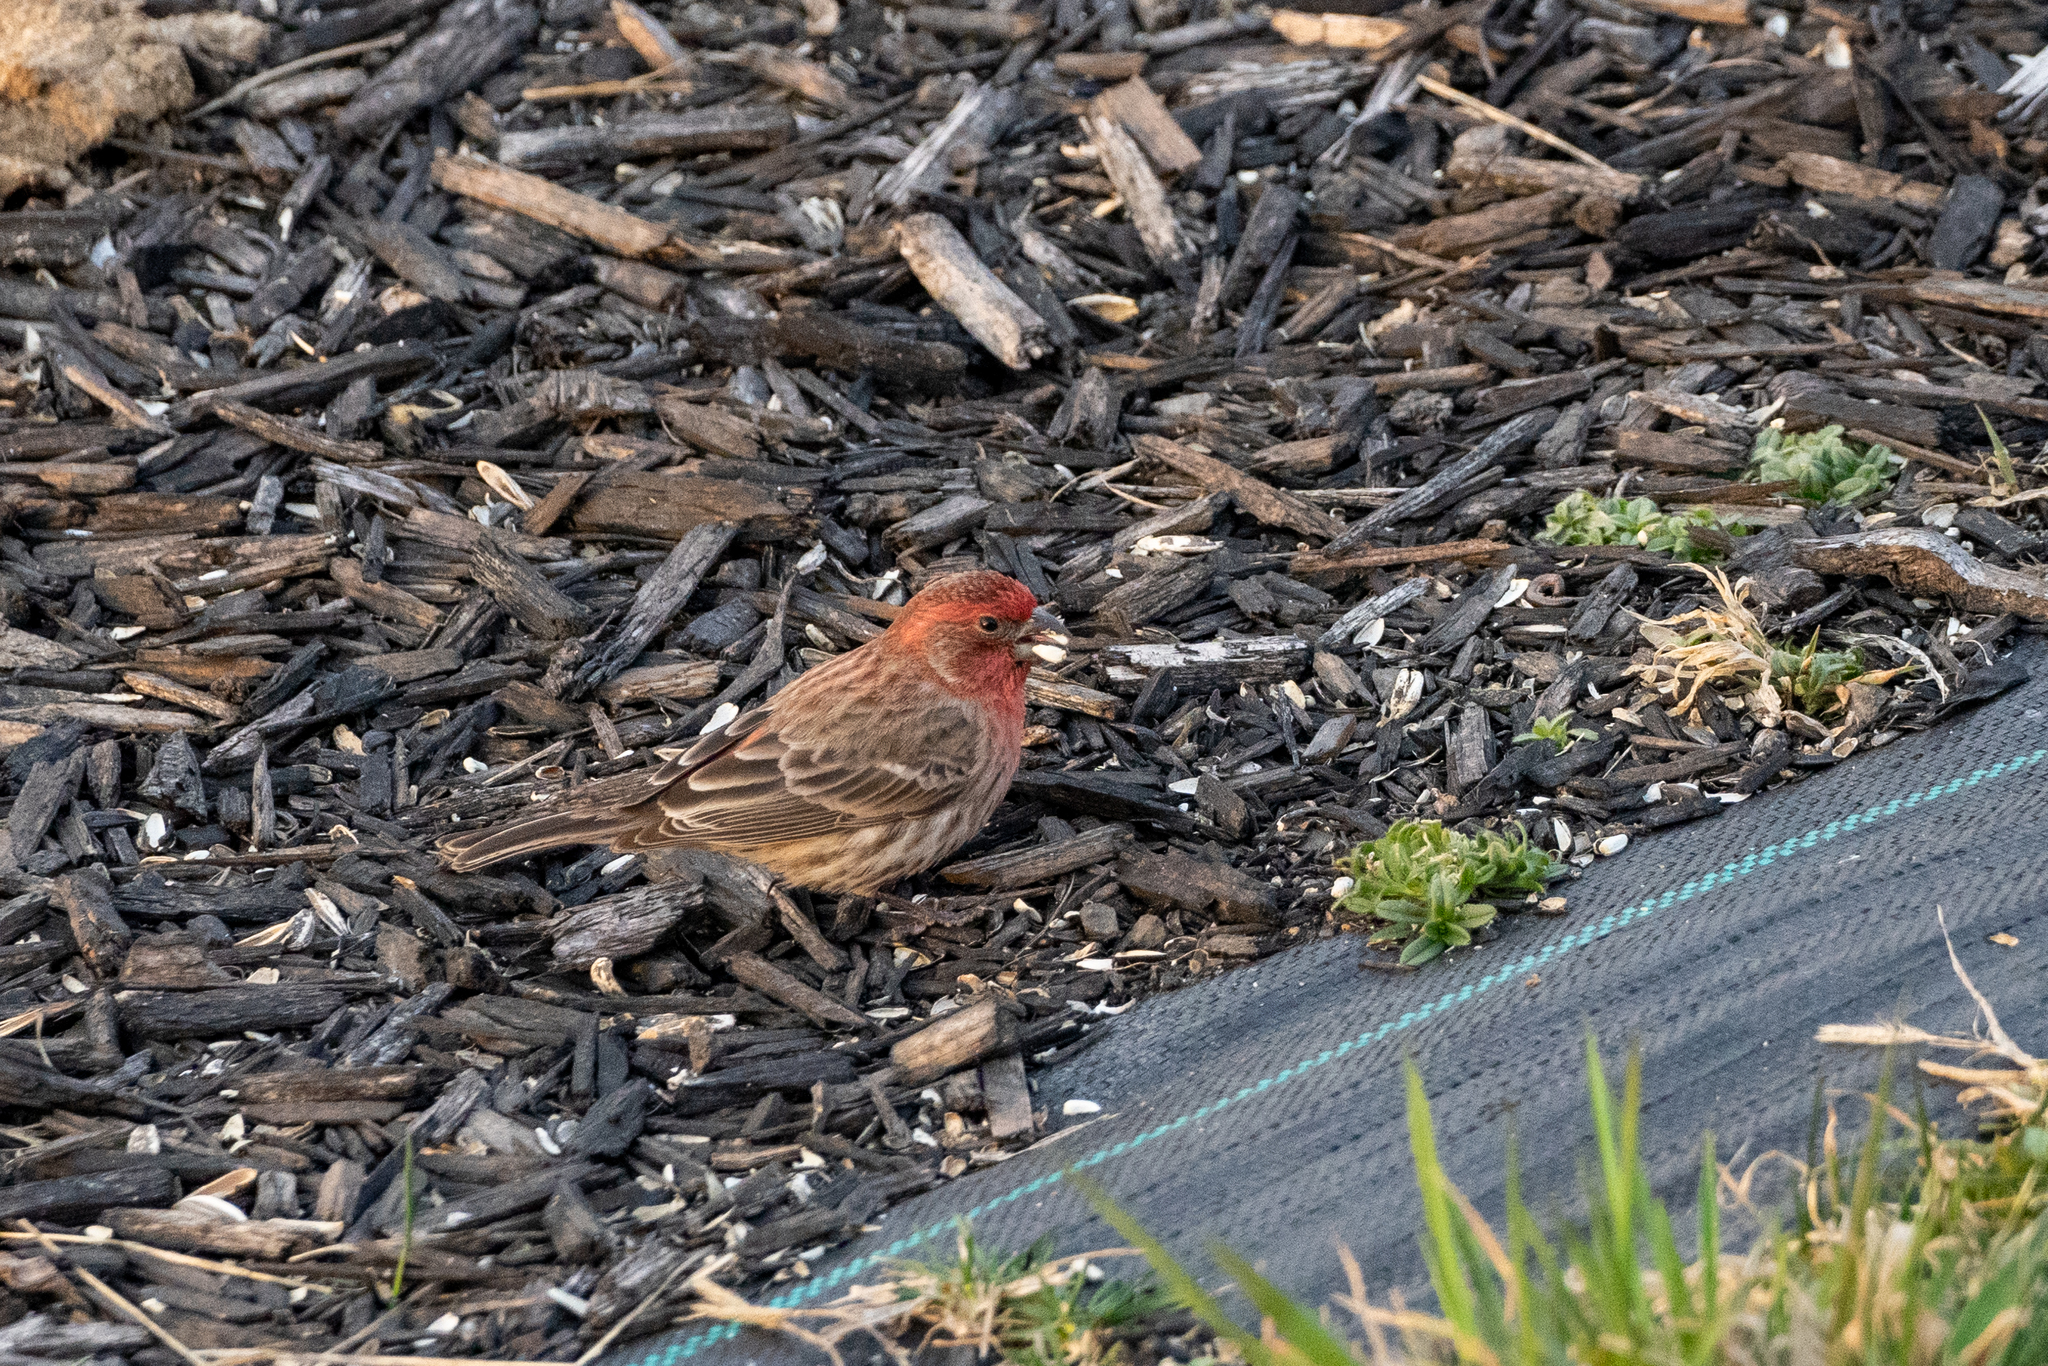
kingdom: Animalia
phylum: Chordata
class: Aves
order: Passeriformes
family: Fringillidae
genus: Haemorhous
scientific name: Haemorhous mexicanus
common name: House finch
